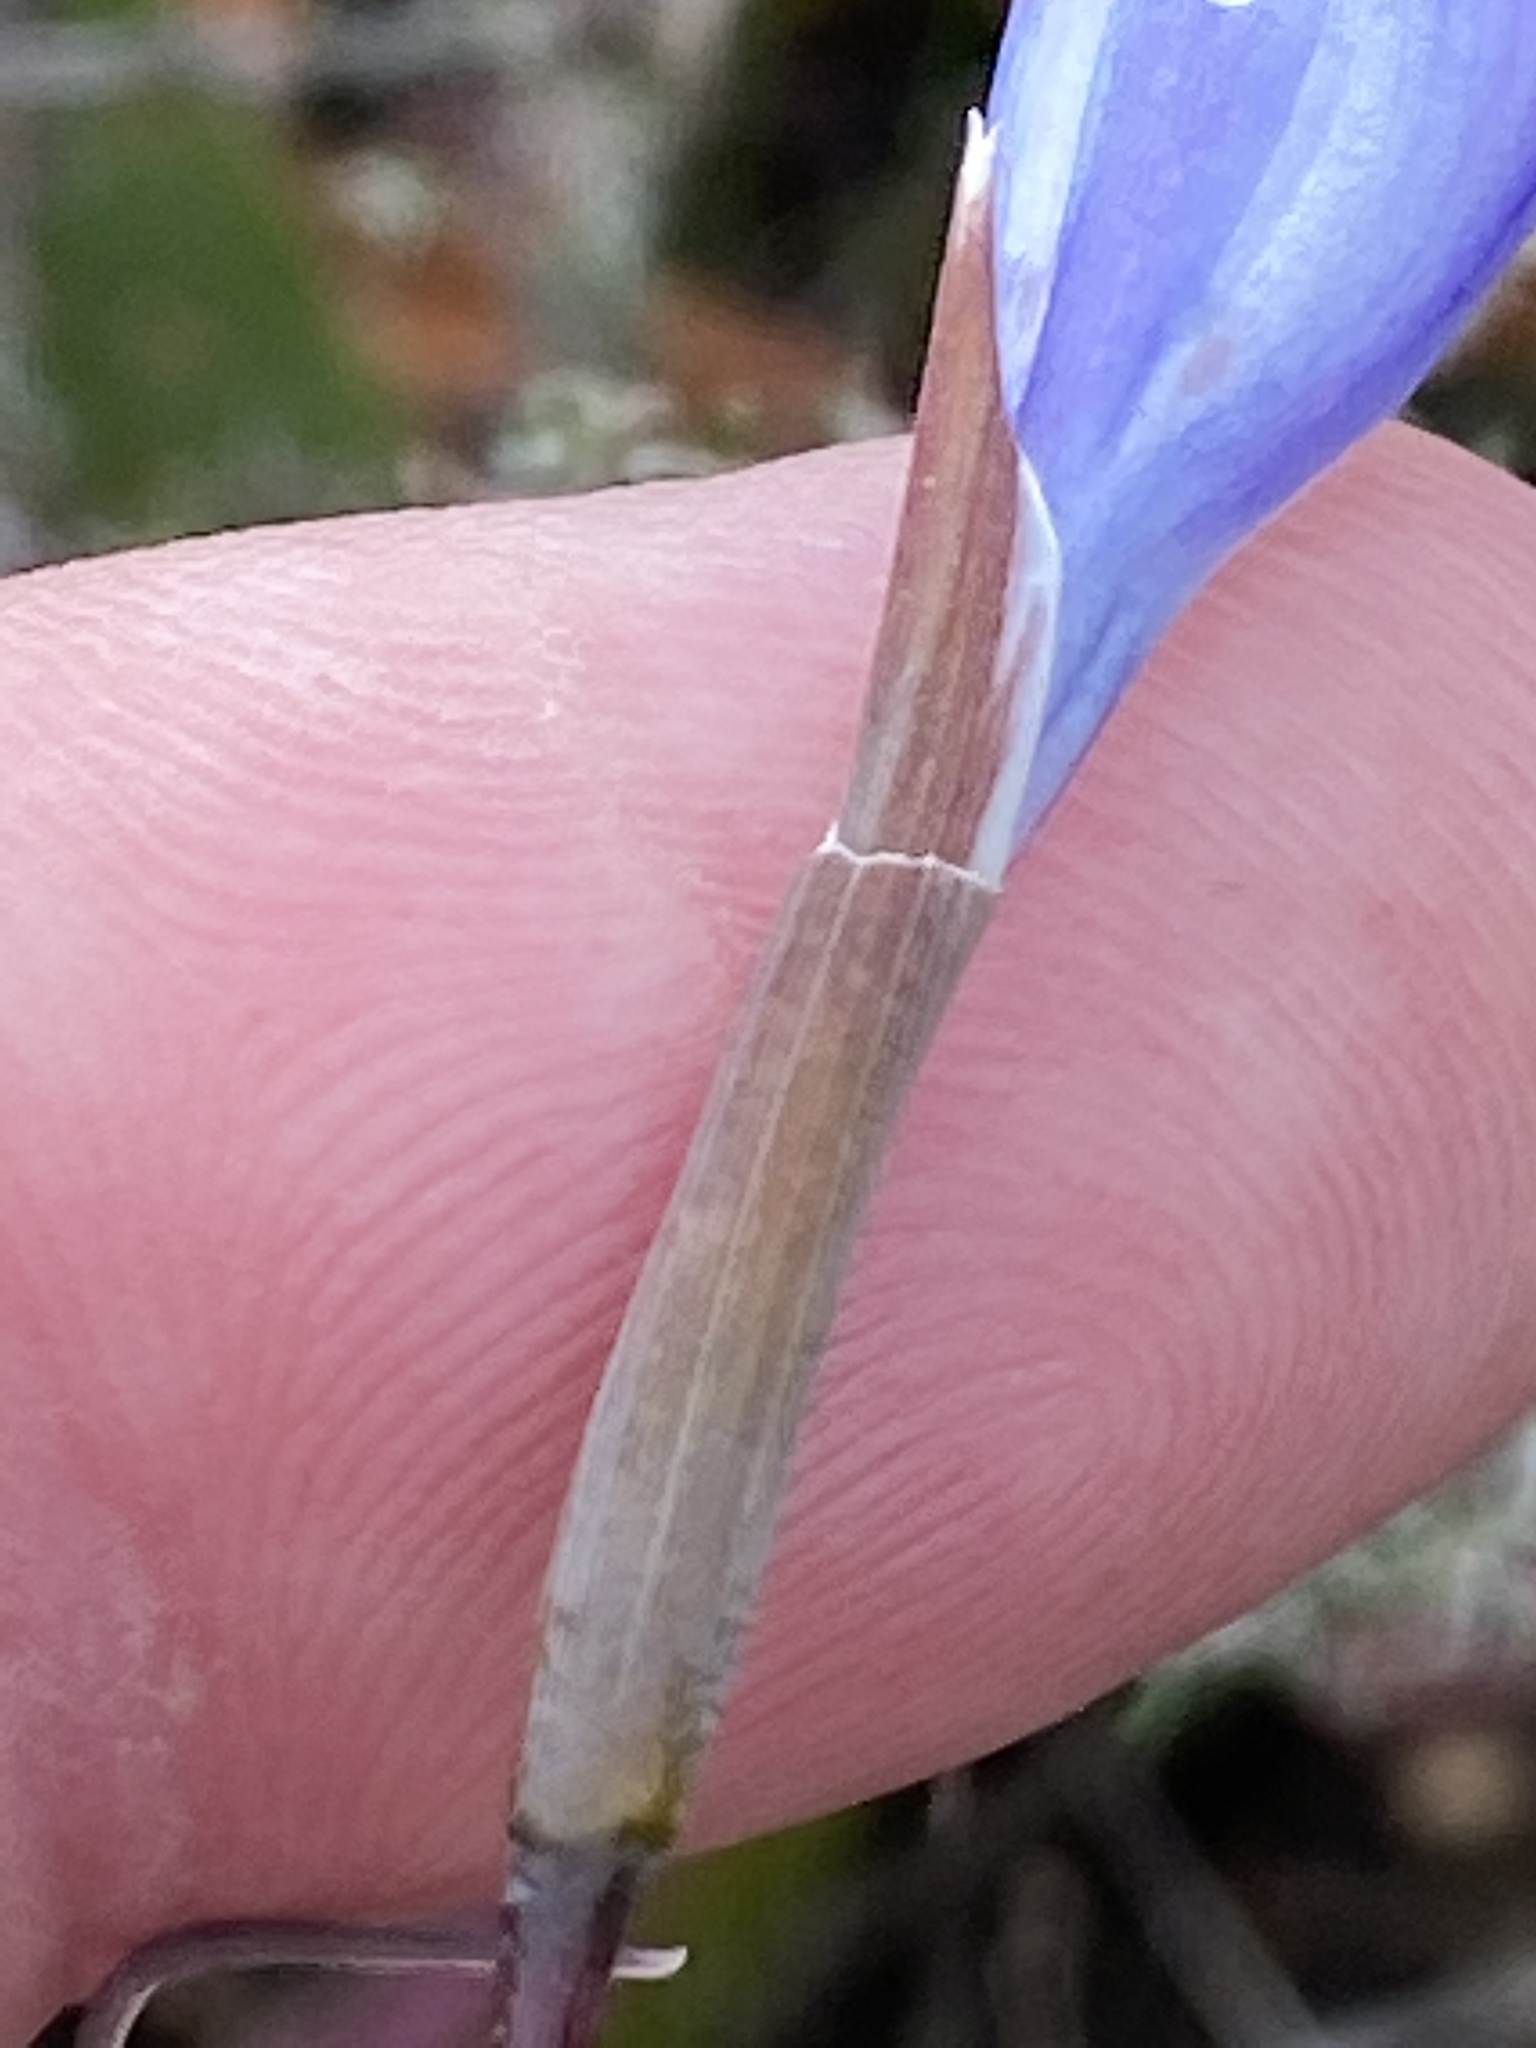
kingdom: Plantae
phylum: Tracheophyta
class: Liliopsida
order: Asparagales
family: Iridaceae
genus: Gladiolus
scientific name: Gladiolus vaginatus
